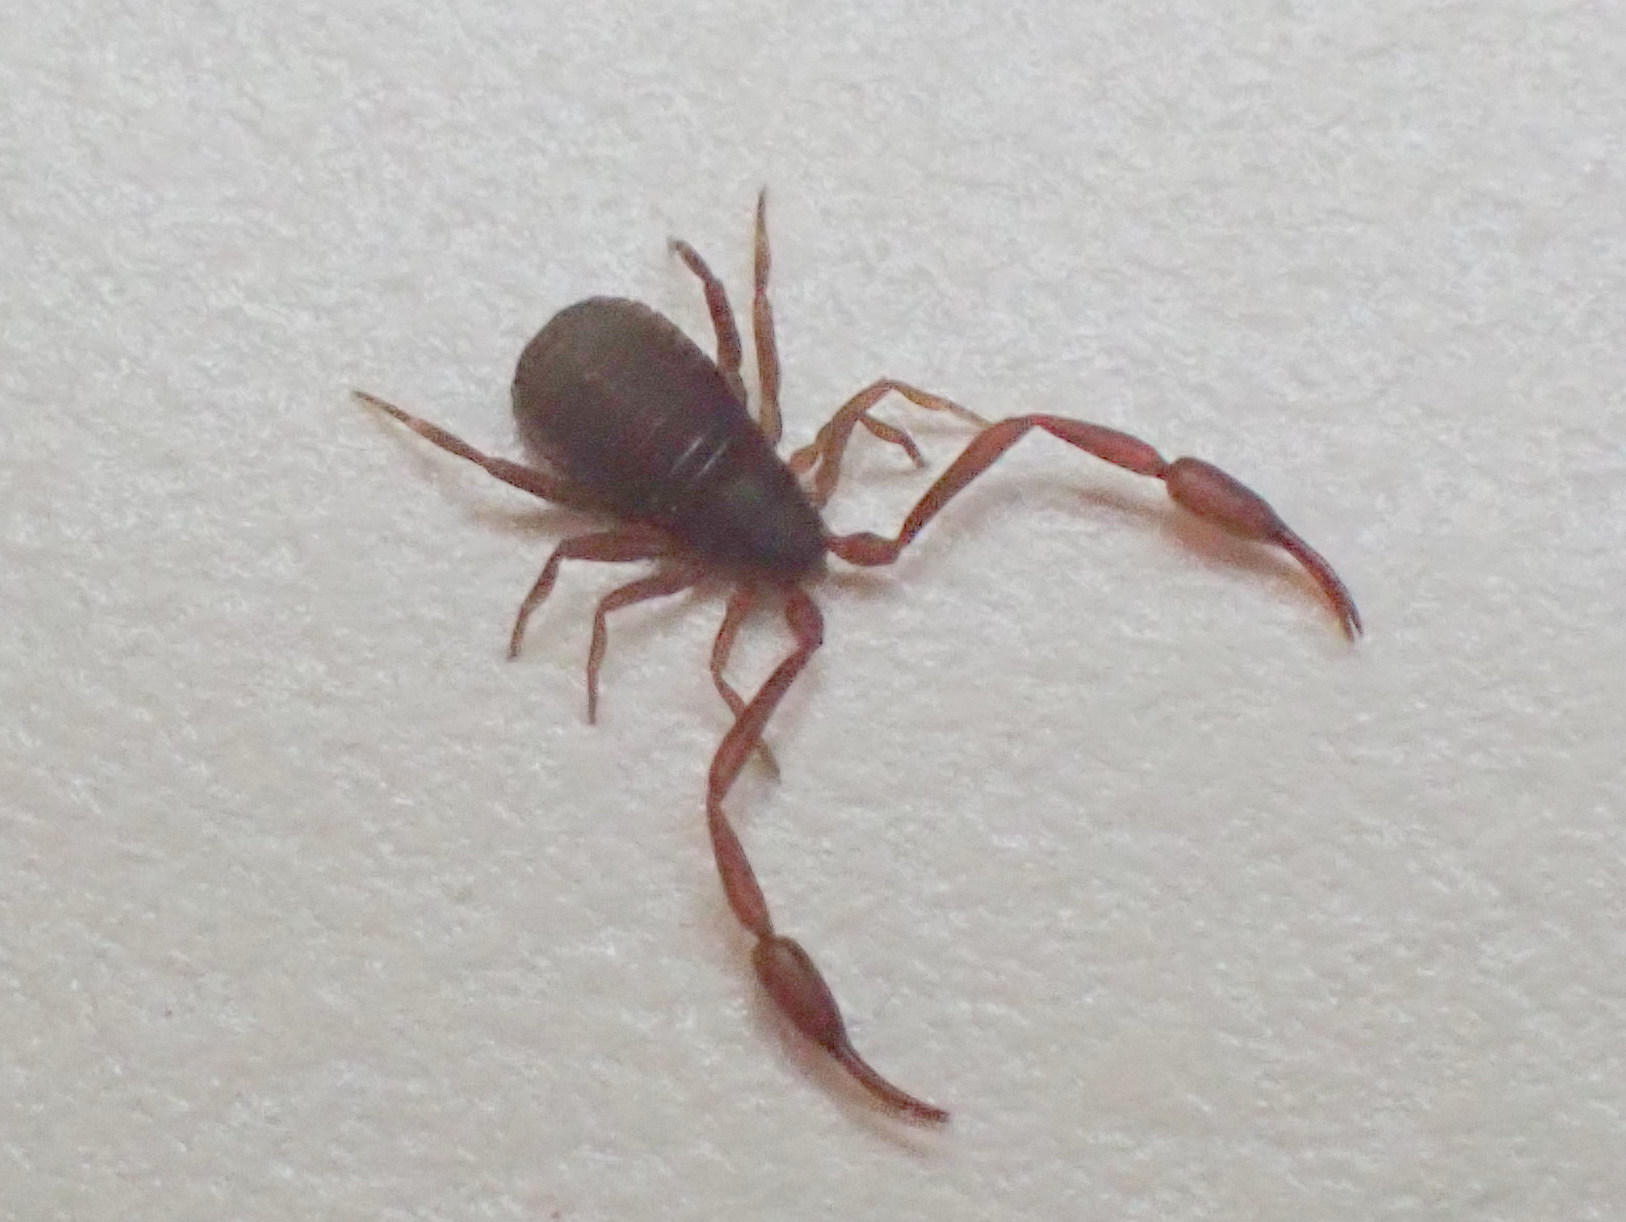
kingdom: Animalia
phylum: Arthropoda
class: Arachnida
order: Pseudoscorpiones
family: Cheliferidae
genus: Chelifer
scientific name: Chelifer cancroides
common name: House false-scorpion
